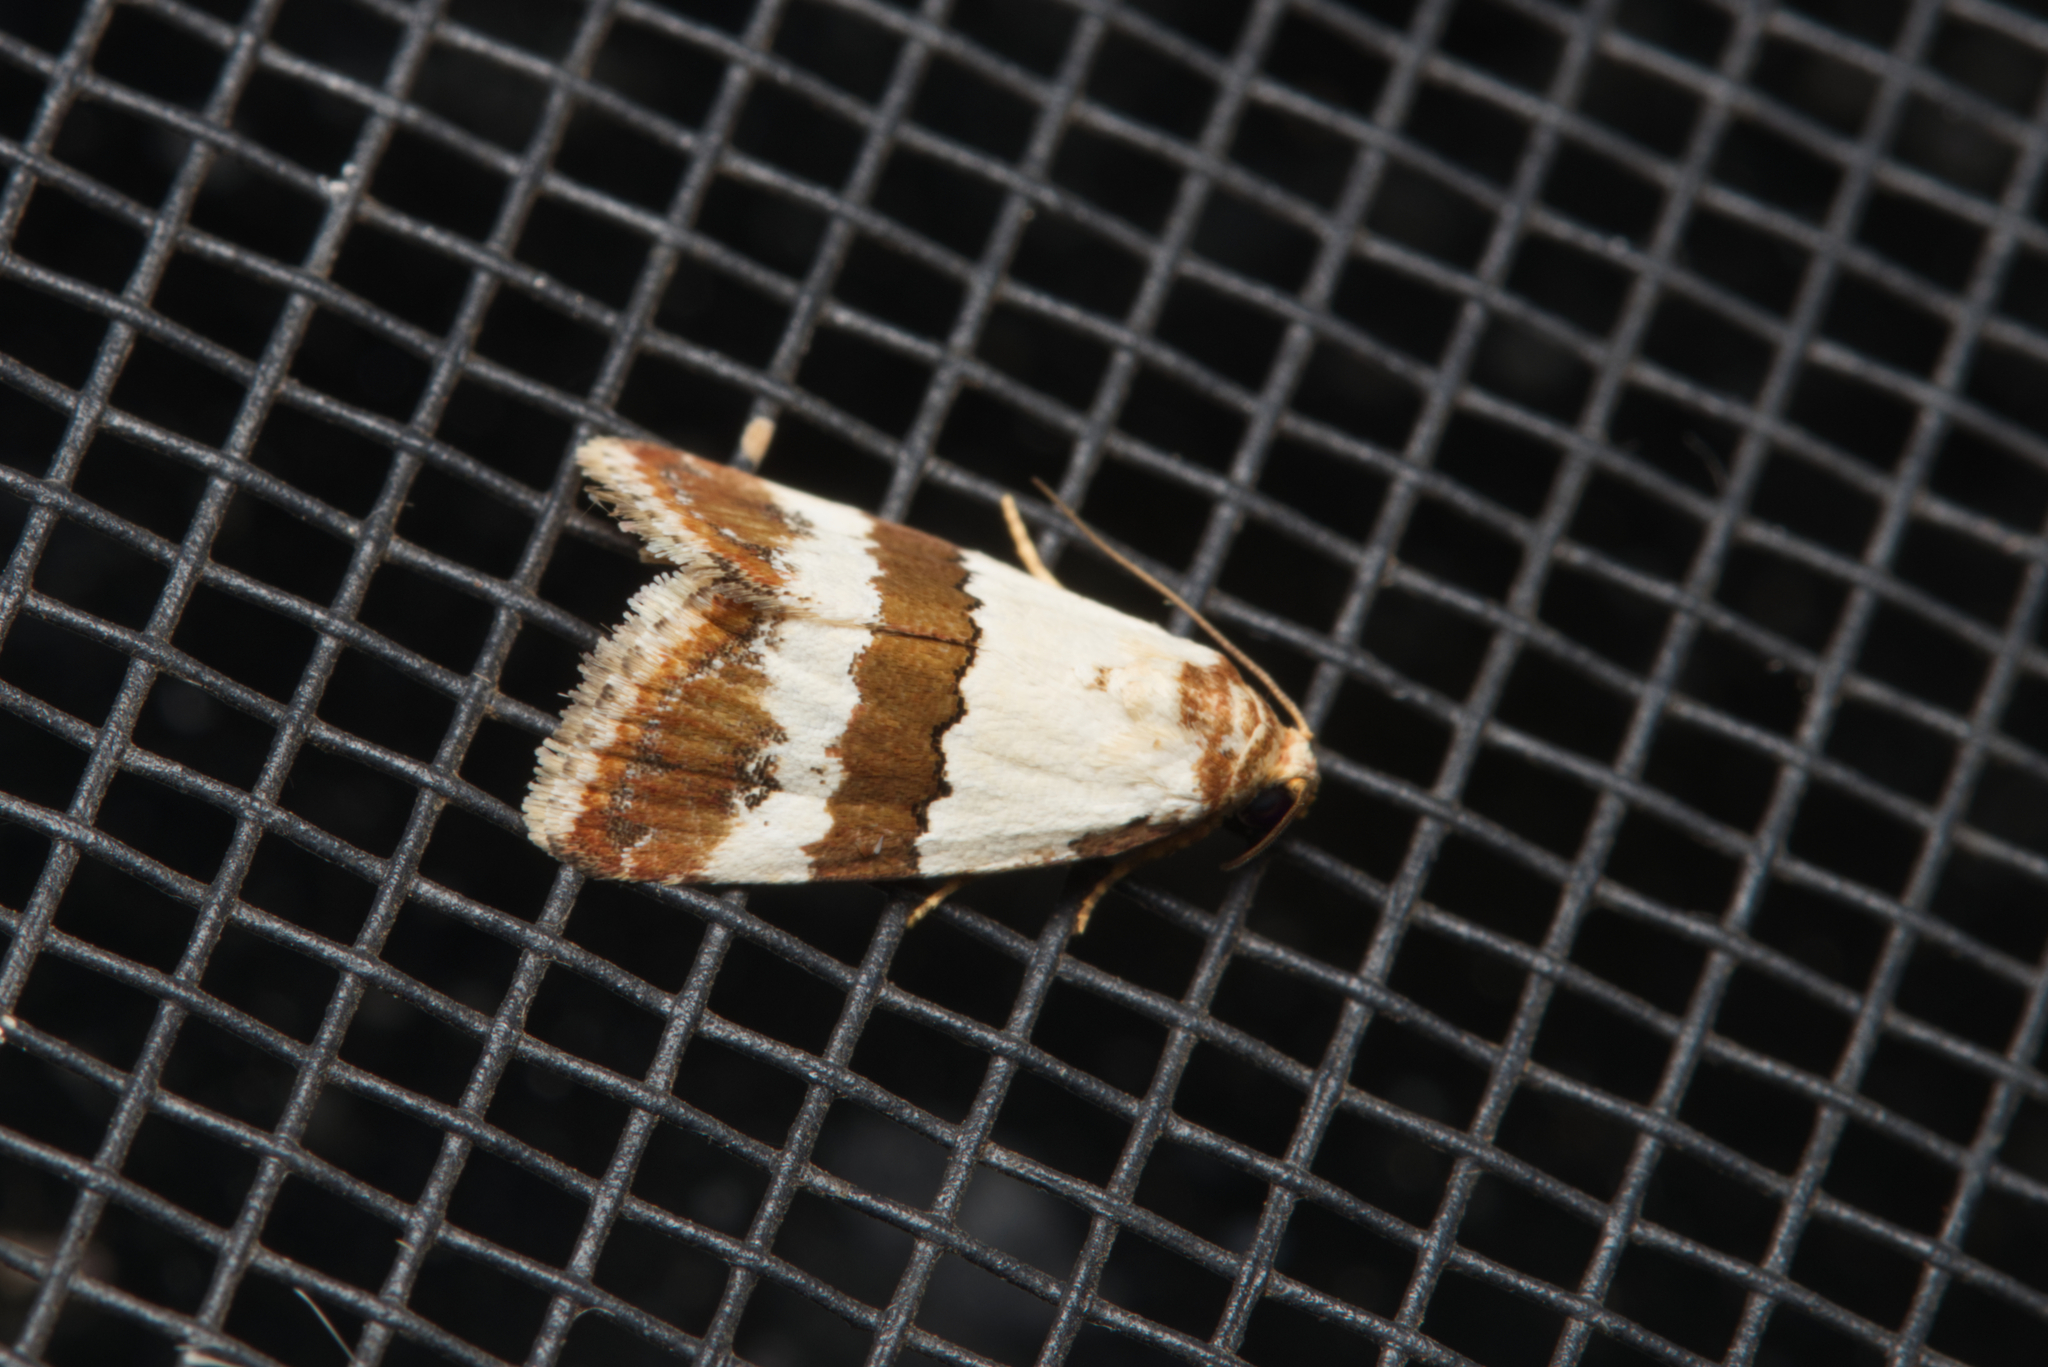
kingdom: Animalia
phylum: Arthropoda
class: Insecta
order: Lepidoptera
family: Noctuidae
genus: Maliattha
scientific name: Maliattha ritsemae
